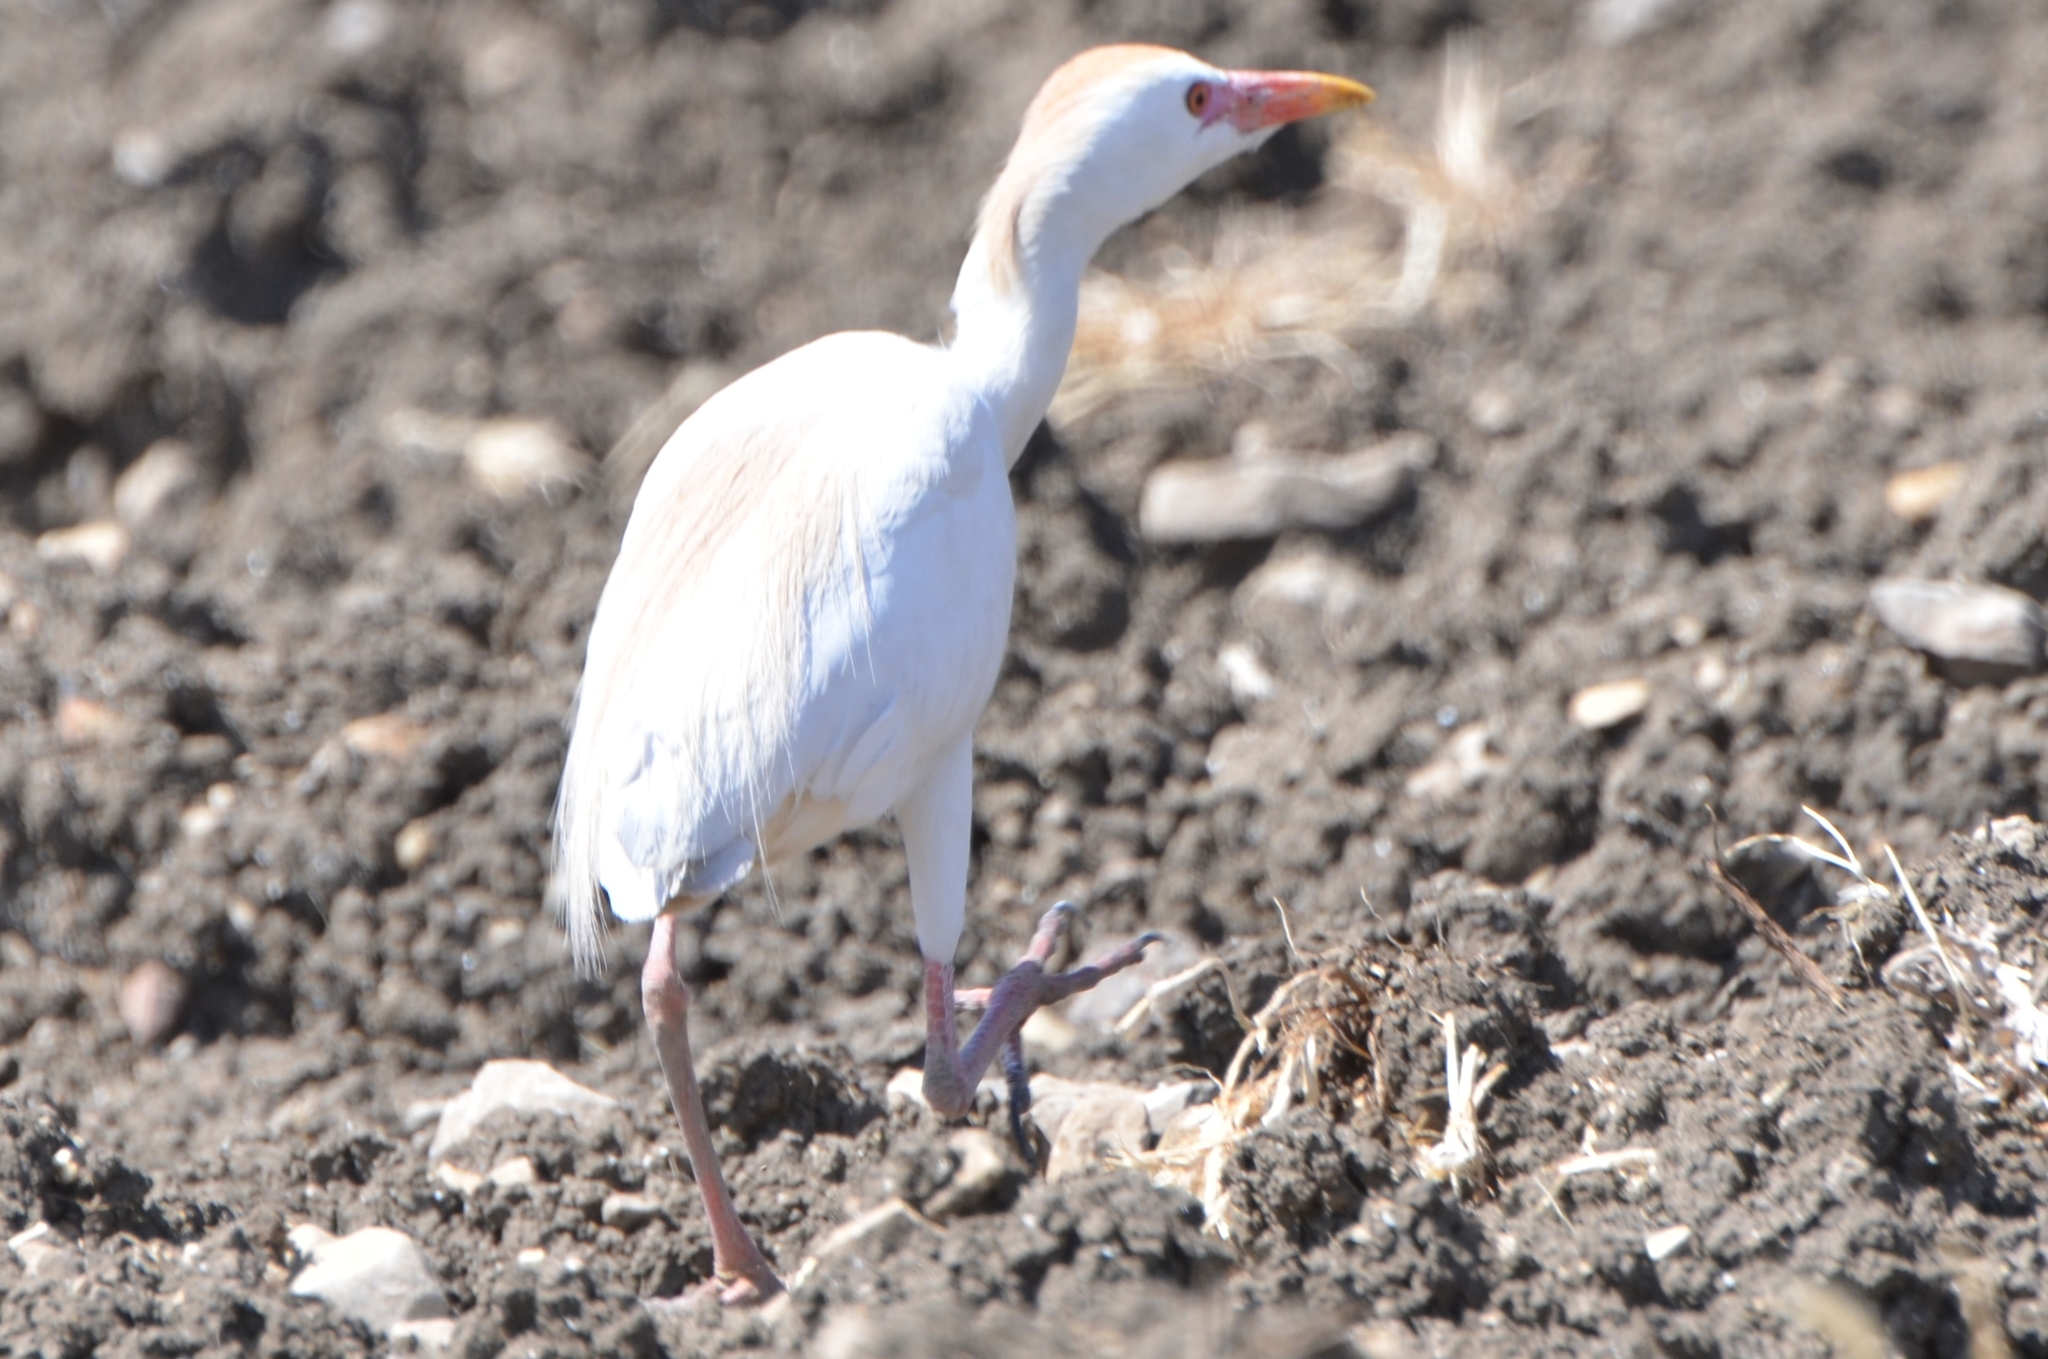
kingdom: Animalia
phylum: Chordata
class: Aves
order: Pelecaniformes
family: Ardeidae
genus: Bubulcus
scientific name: Bubulcus ibis
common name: Cattle egret
